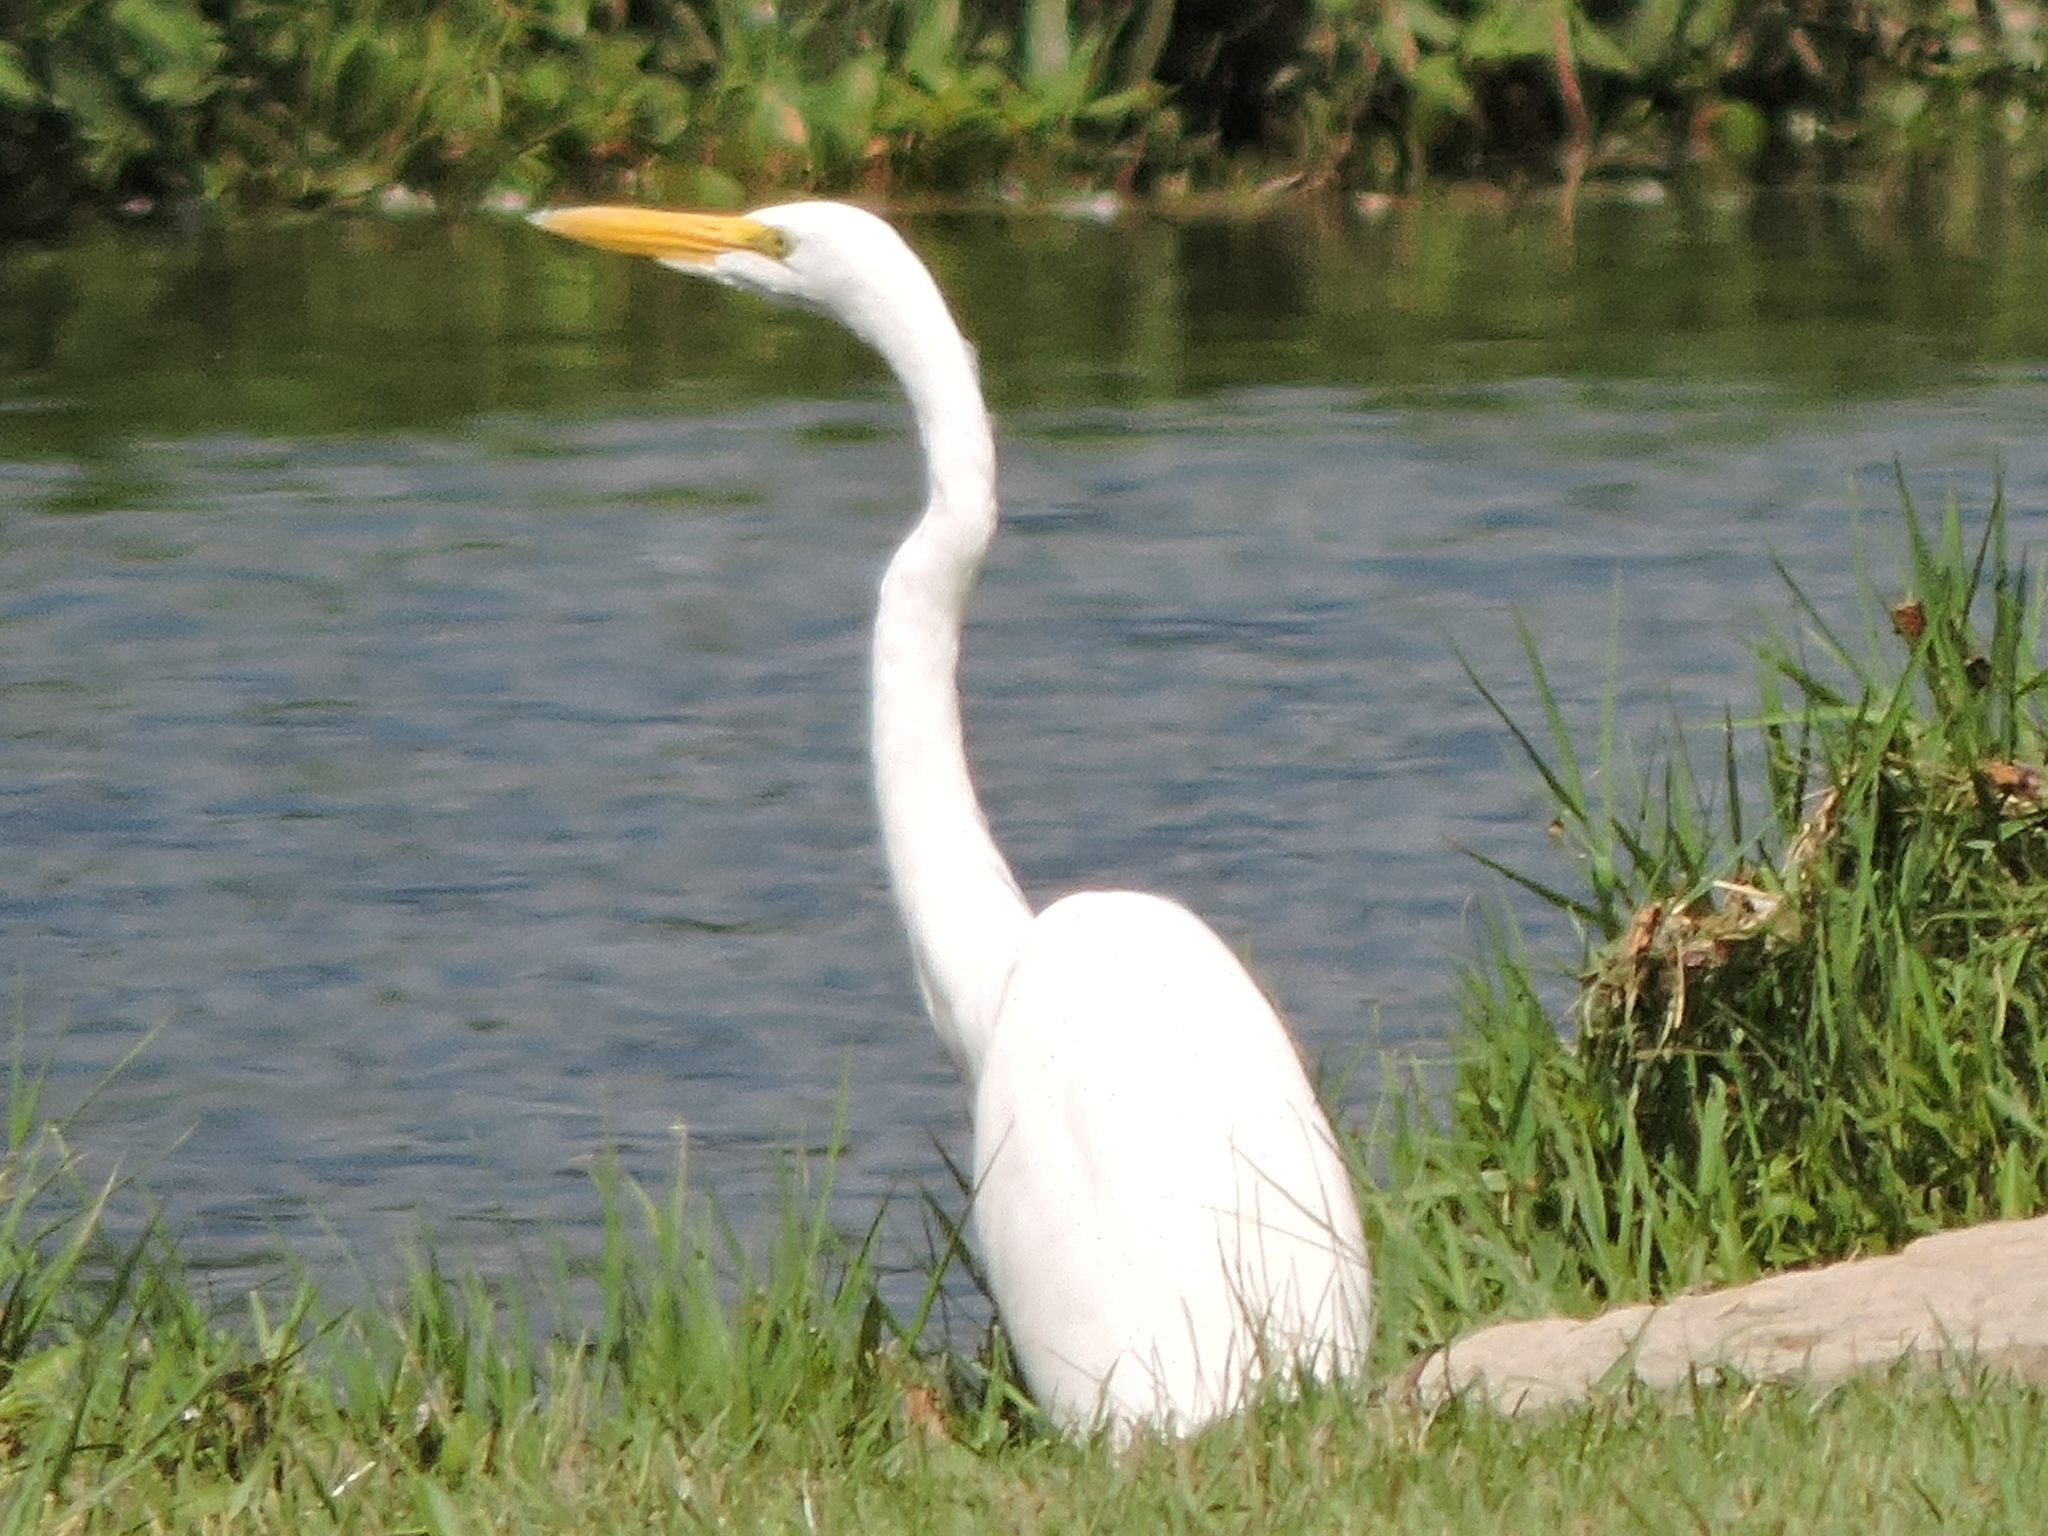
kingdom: Animalia
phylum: Chordata
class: Aves
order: Pelecaniformes
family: Ardeidae
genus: Ardea
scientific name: Ardea alba
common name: Great egret
